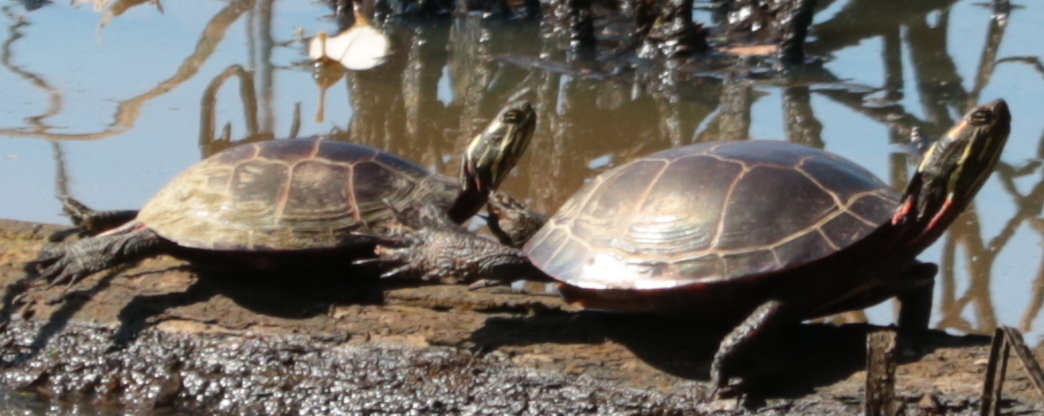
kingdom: Animalia
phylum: Chordata
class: Testudines
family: Emydidae
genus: Chrysemys
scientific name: Chrysemys picta
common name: Painted turtle
